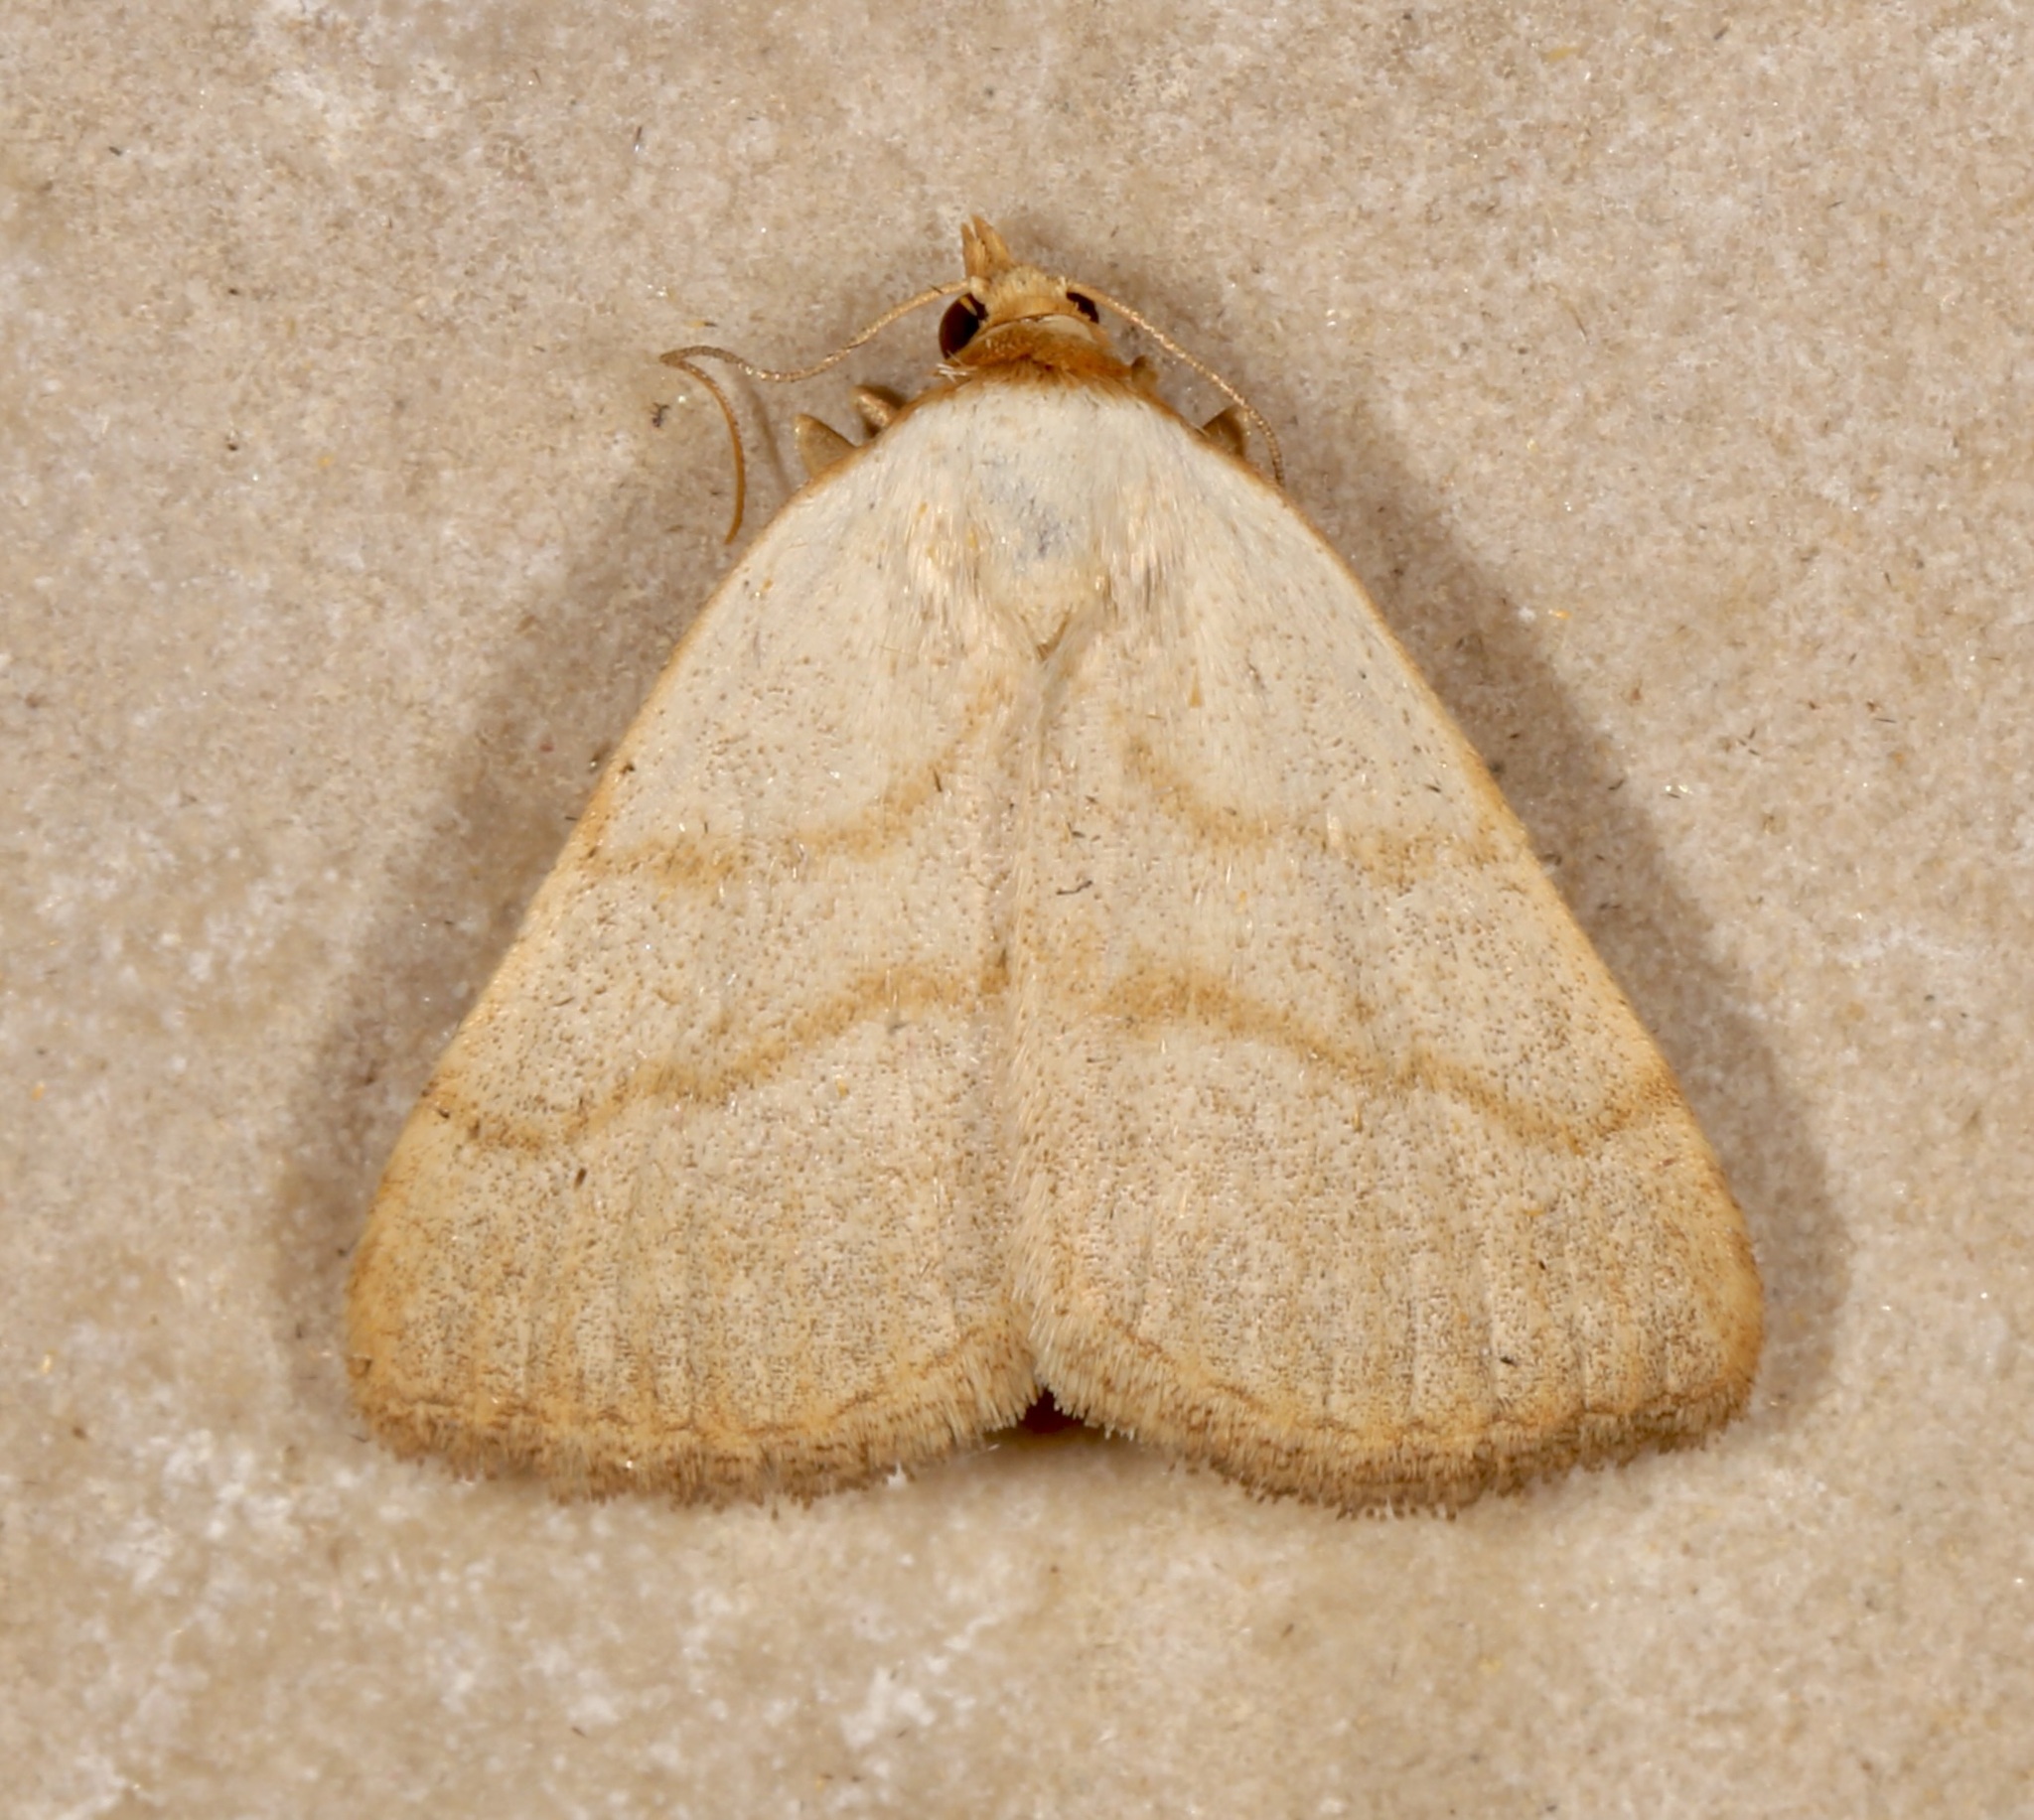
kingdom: Animalia
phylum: Arthropoda
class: Insecta
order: Lepidoptera
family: Erebidae
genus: Oxycilla
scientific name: Oxycilla tripla
